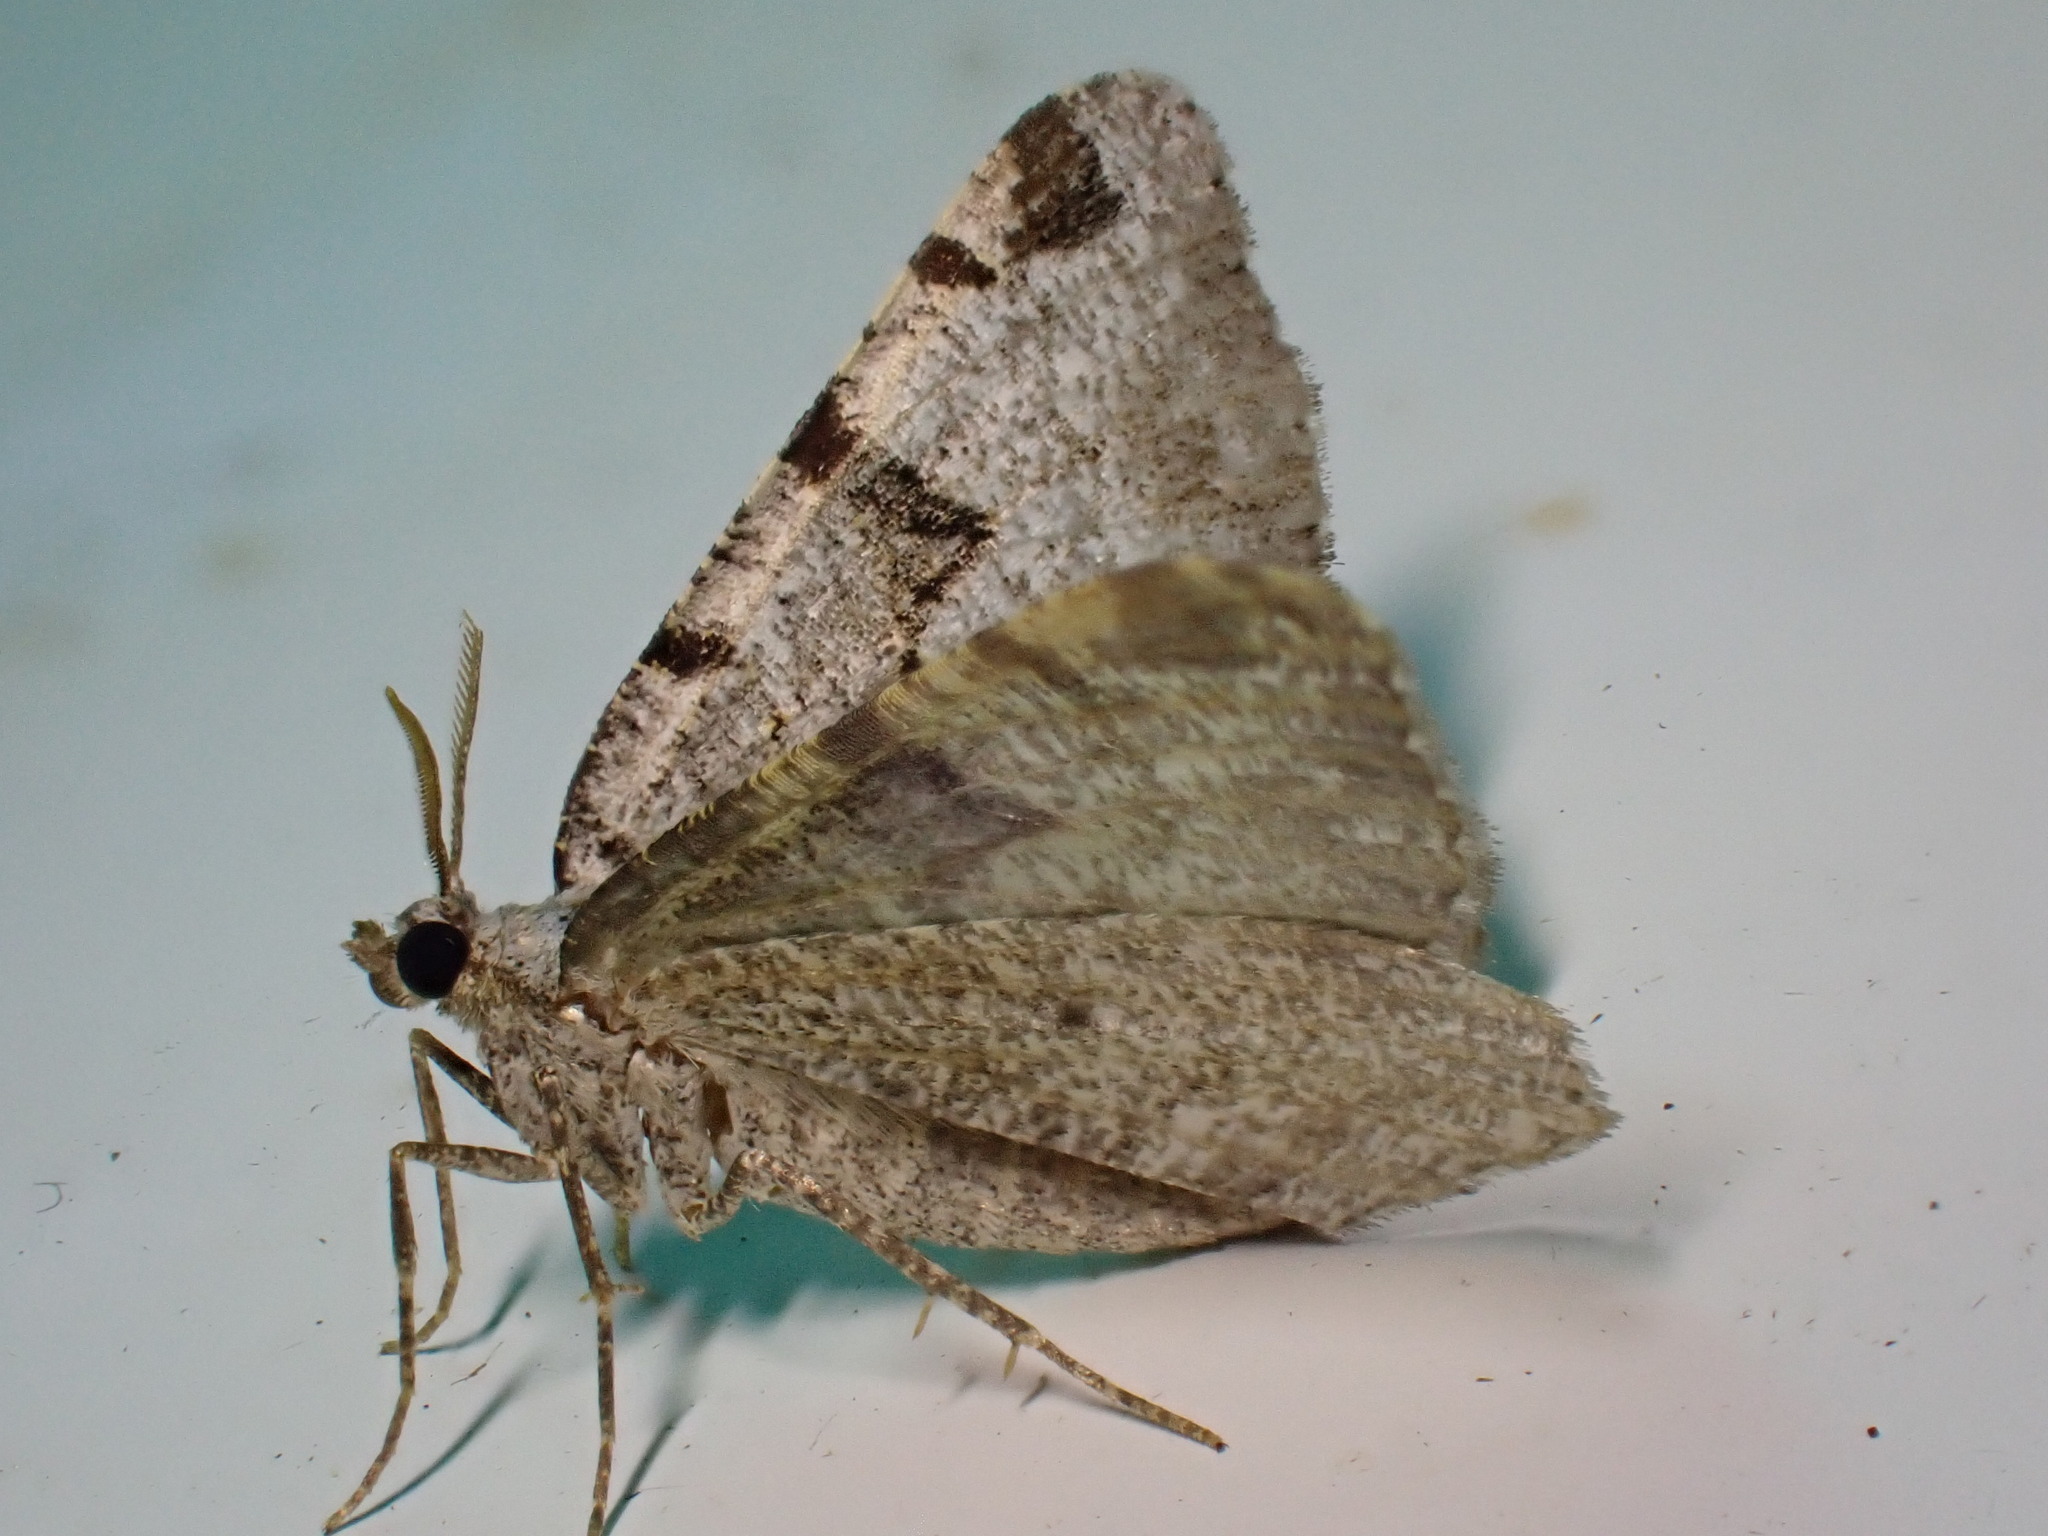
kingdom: Animalia
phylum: Arthropoda
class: Insecta
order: Lepidoptera
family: Geometridae
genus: Macaria
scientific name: Macaria wauaria
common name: V-moth
